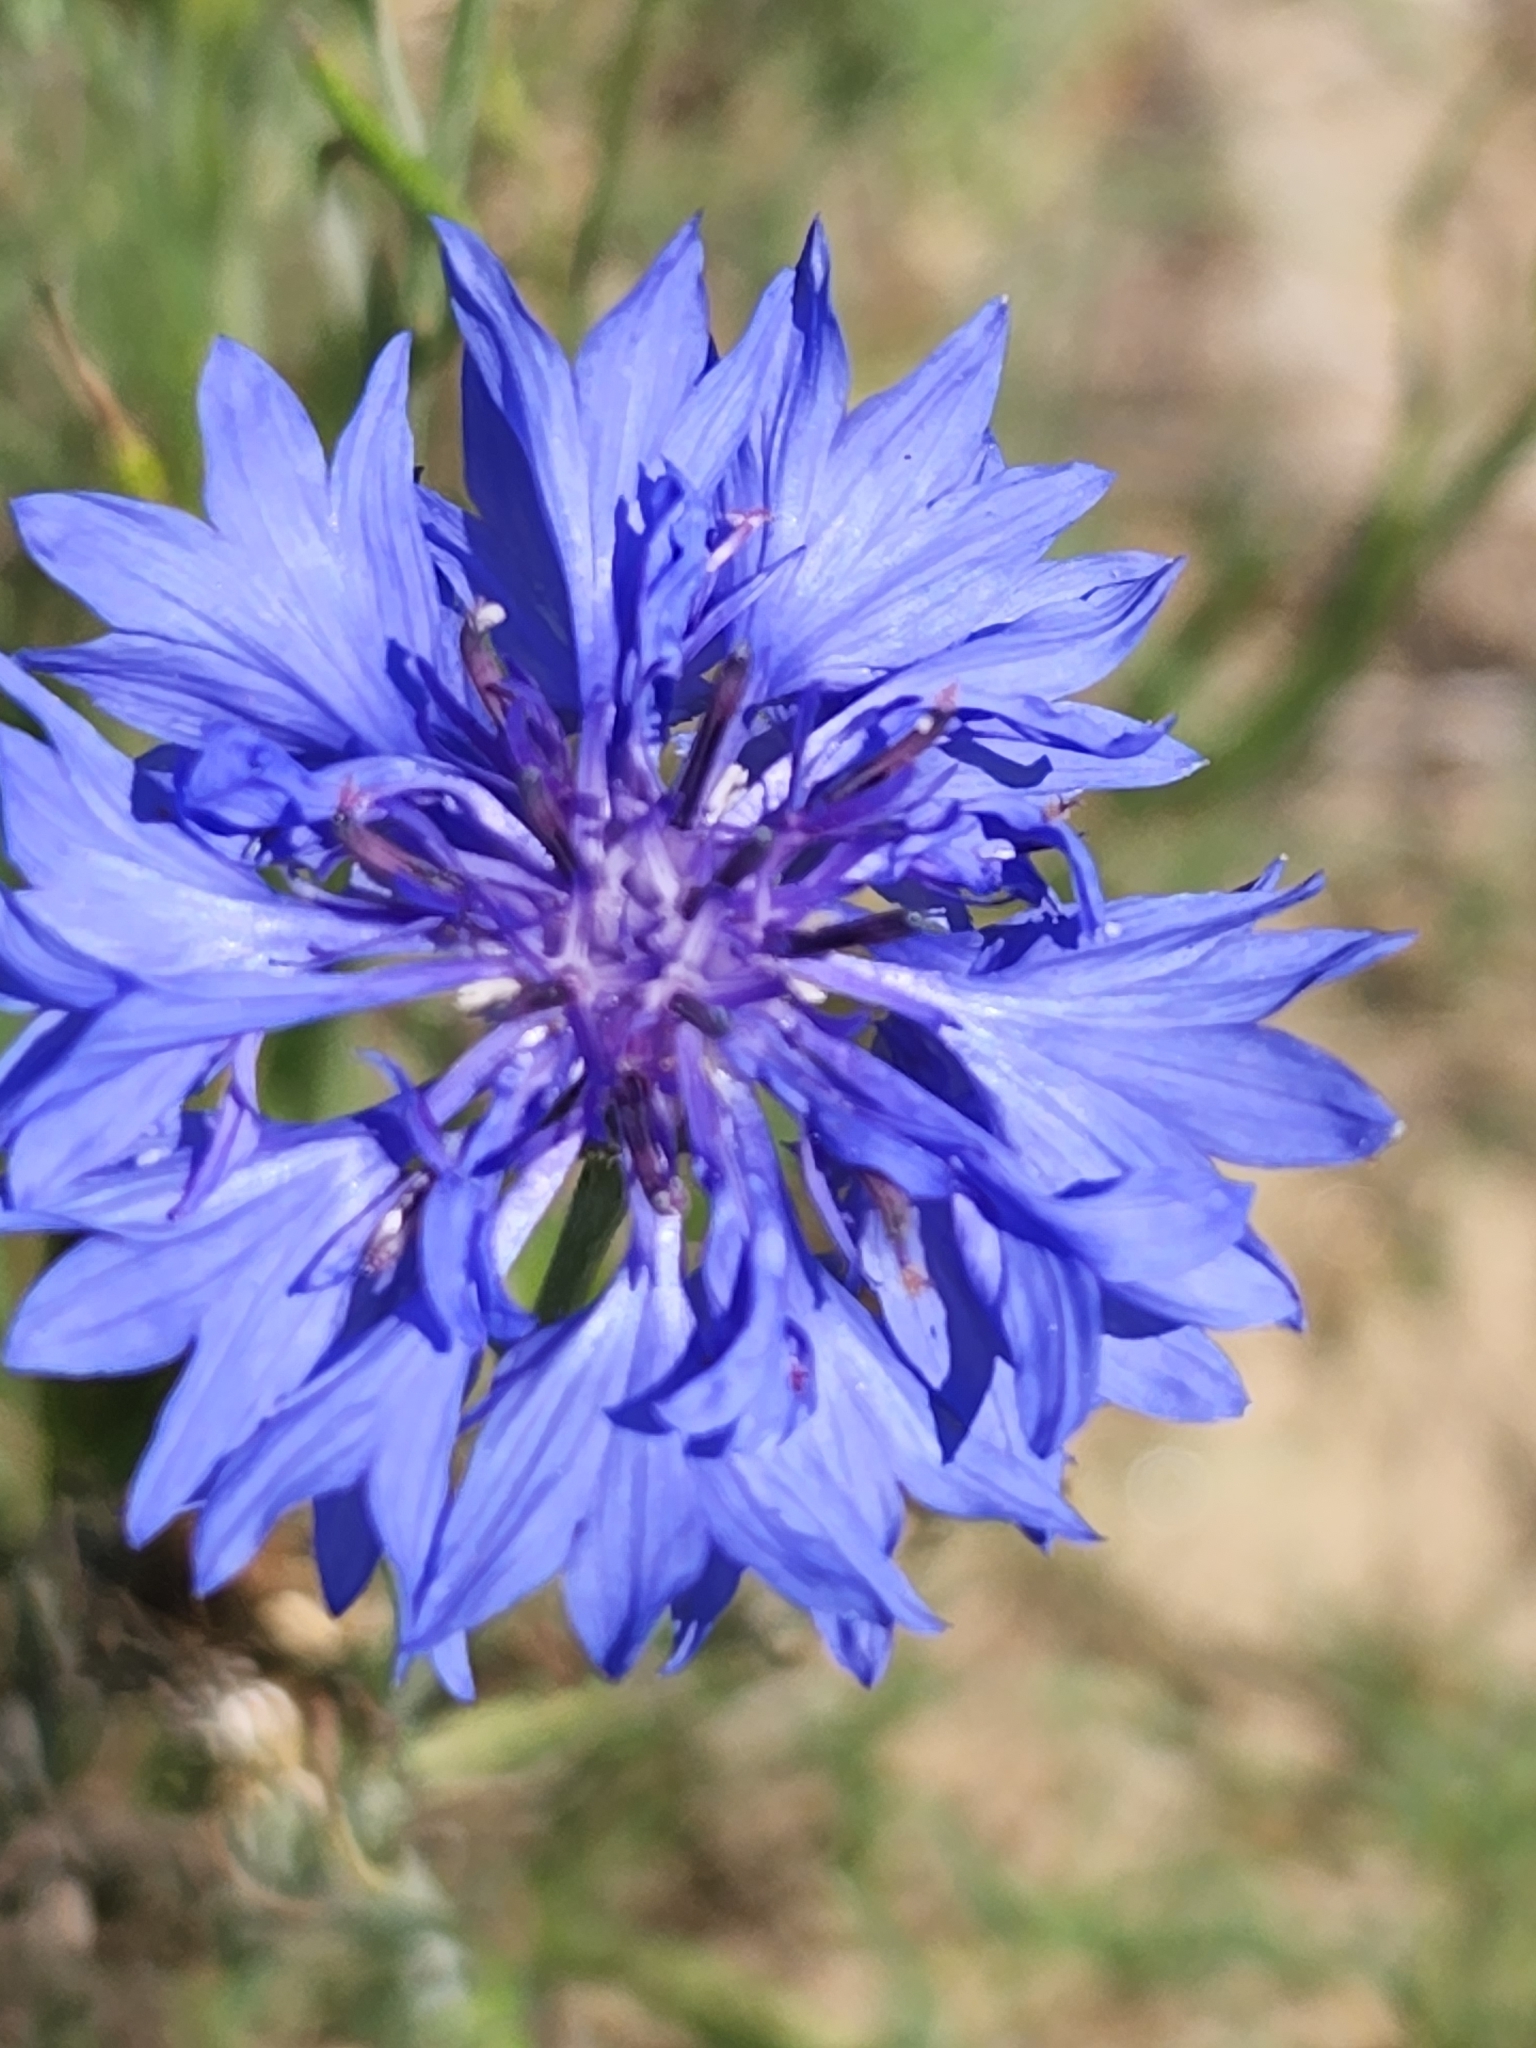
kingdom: Plantae
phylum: Tracheophyta
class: Magnoliopsida
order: Asterales
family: Asteraceae
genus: Centaurea
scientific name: Centaurea cyanus
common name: Cornflower
